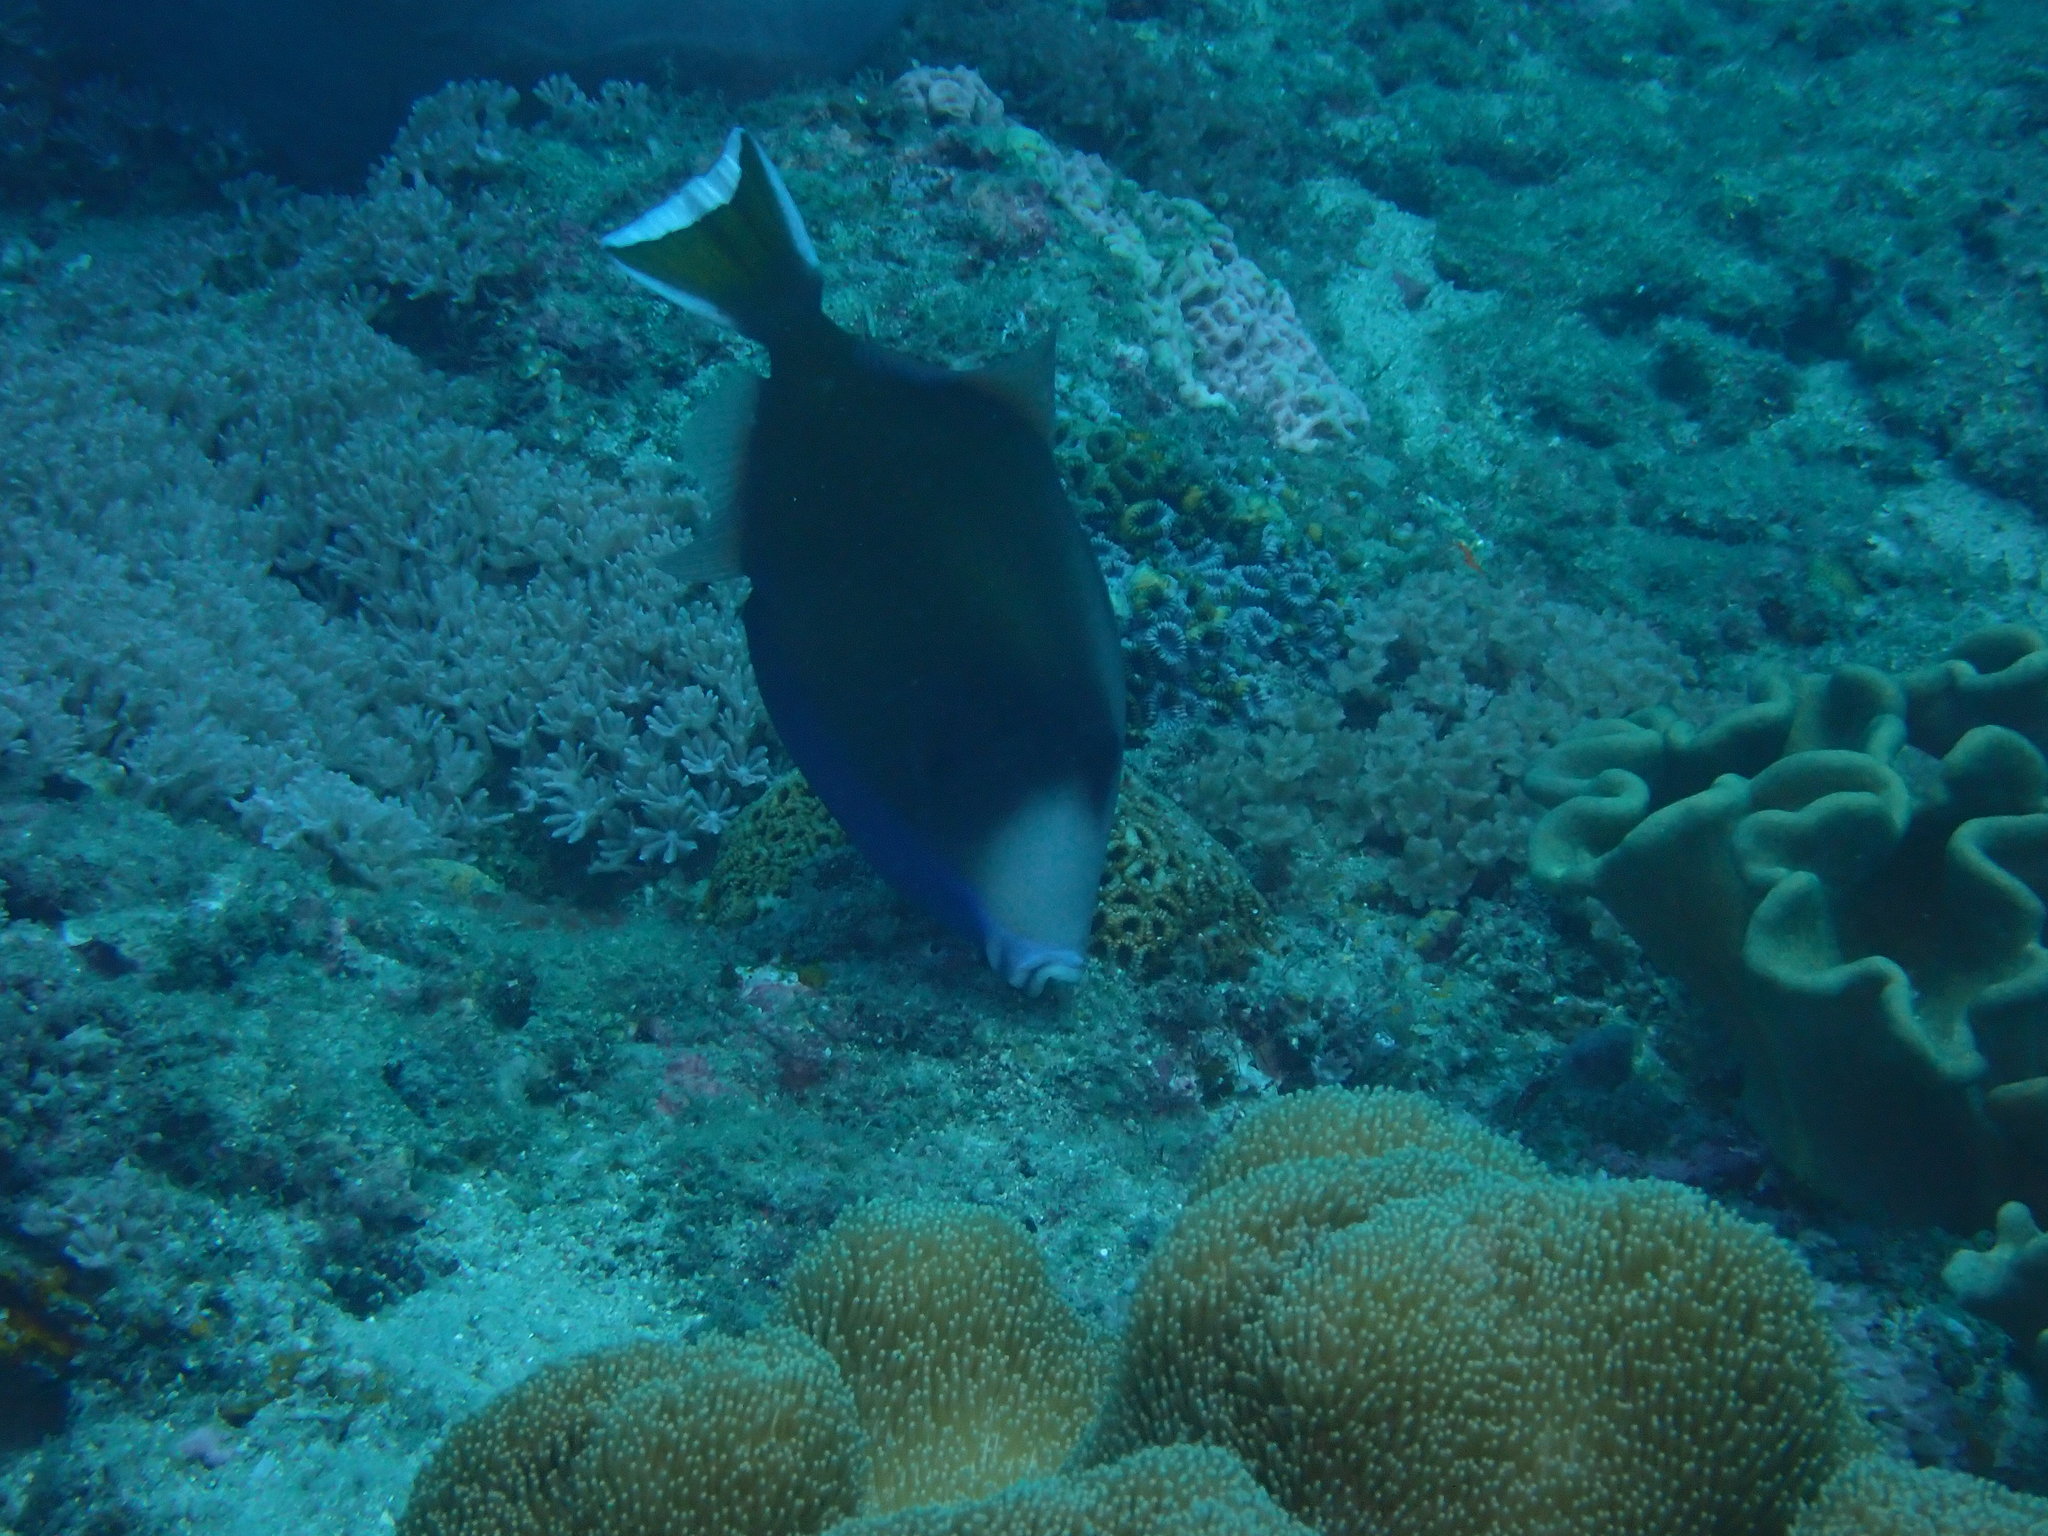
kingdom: Animalia
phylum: Chordata
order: Tetraodontiformes
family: Balistidae
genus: Sufflamen
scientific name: Sufflamen chrysopterum
